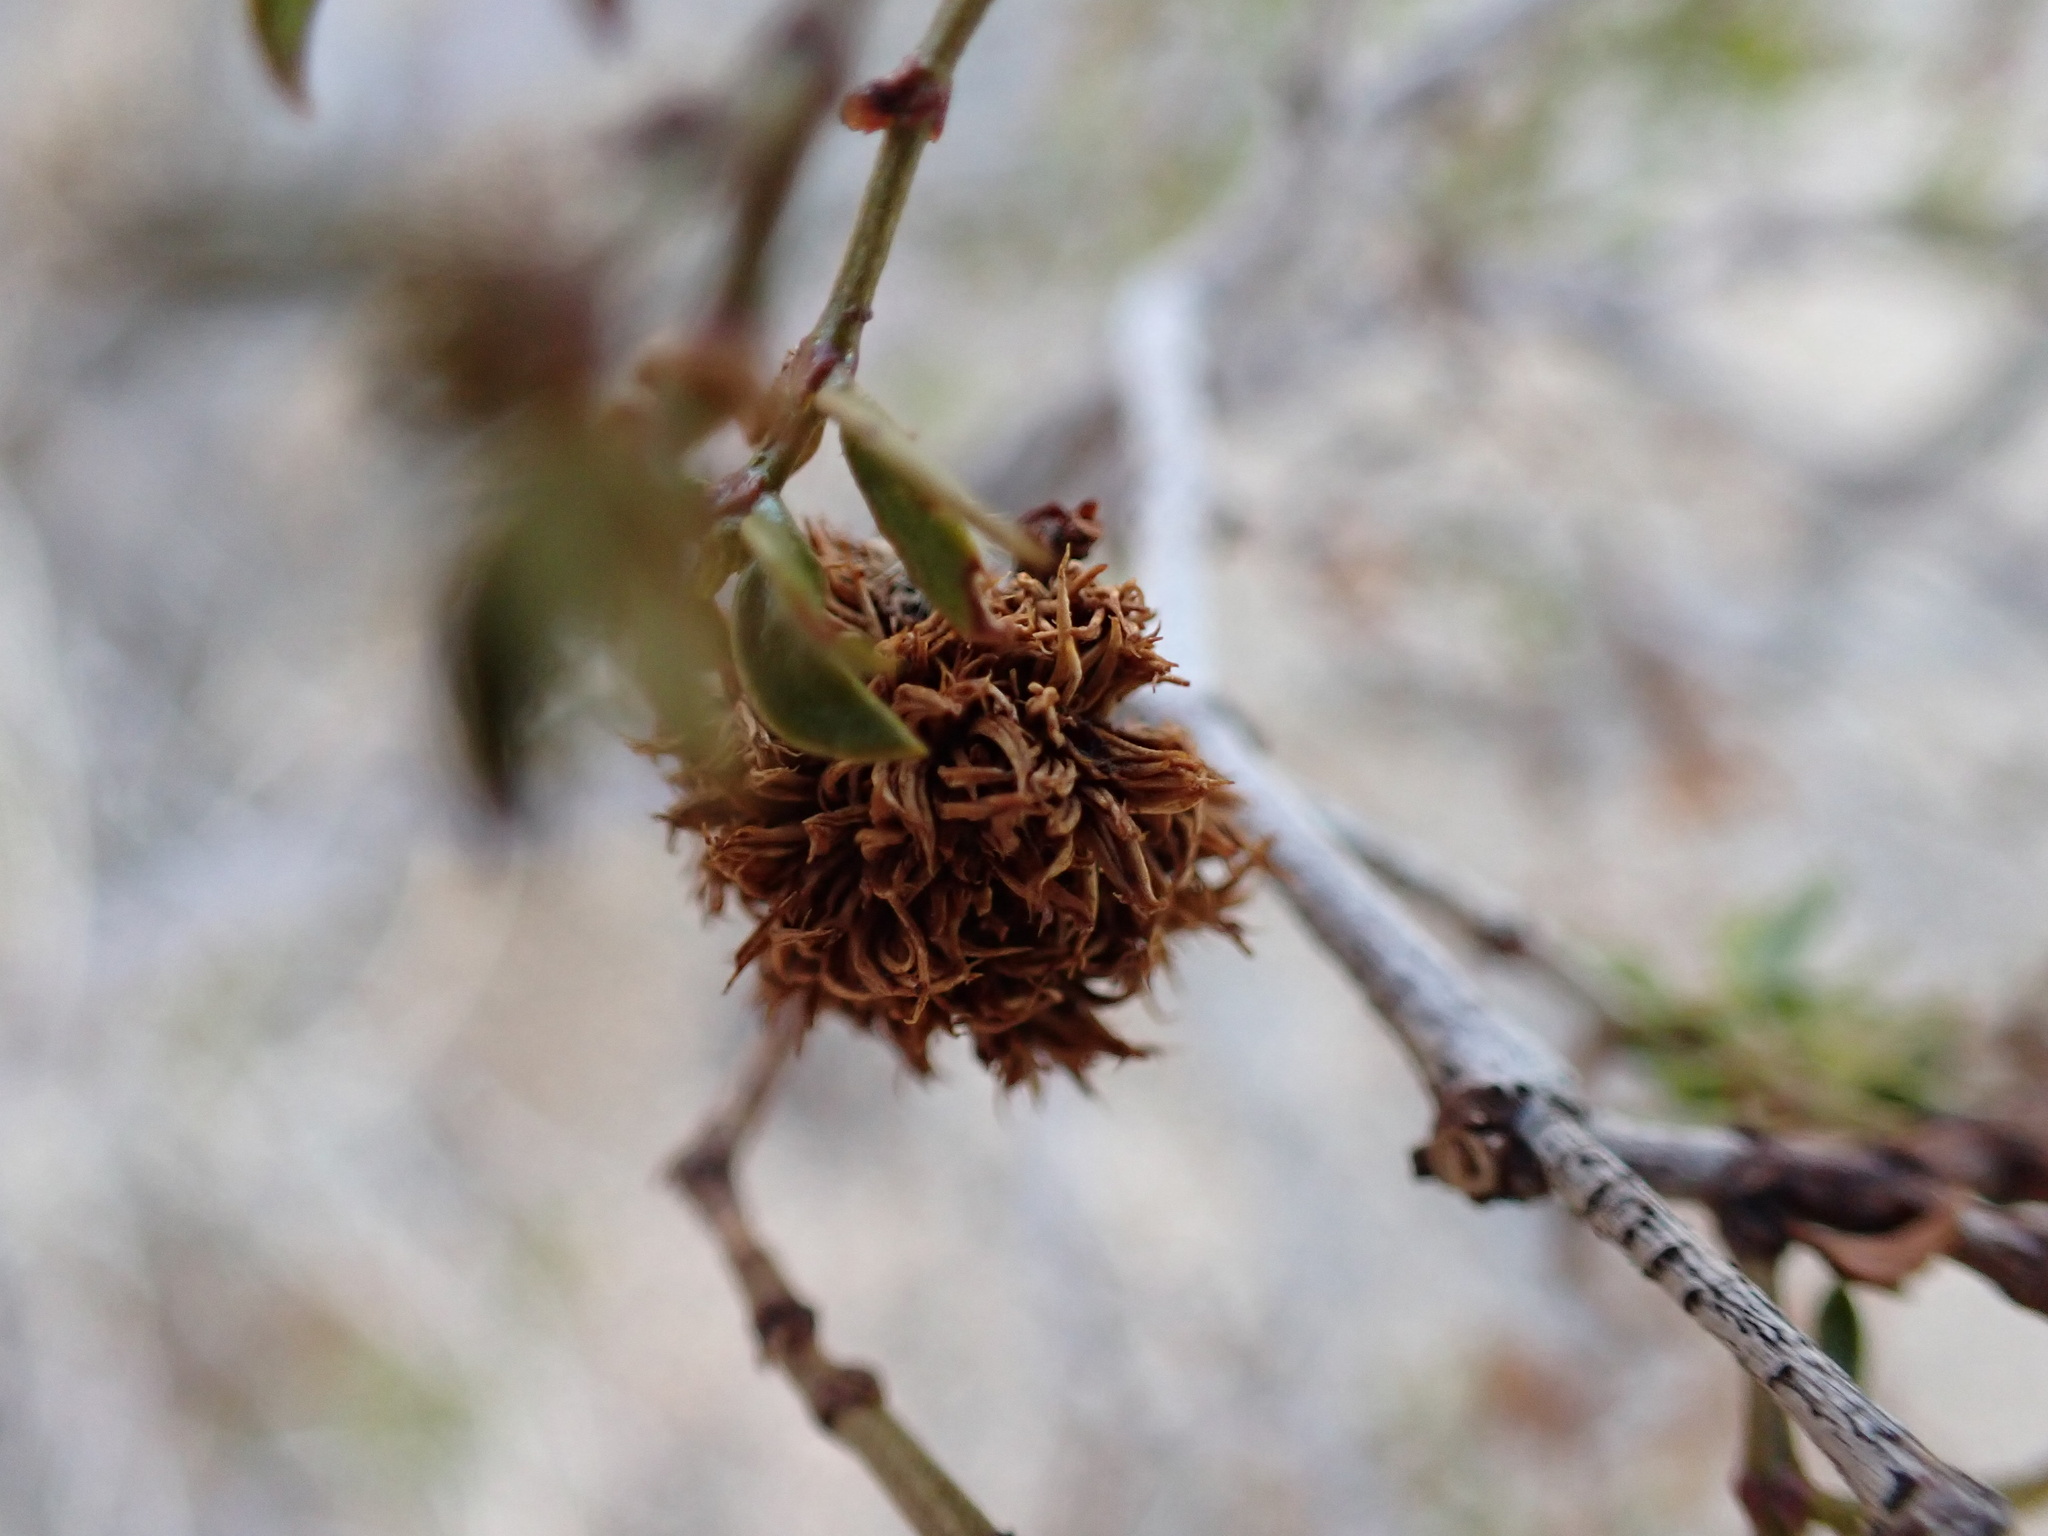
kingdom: Animalia
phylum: Arthropoda
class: Insecta
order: Diptera
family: Cecidomyiidae
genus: Asphondylia
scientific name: Asphondylia auripila
